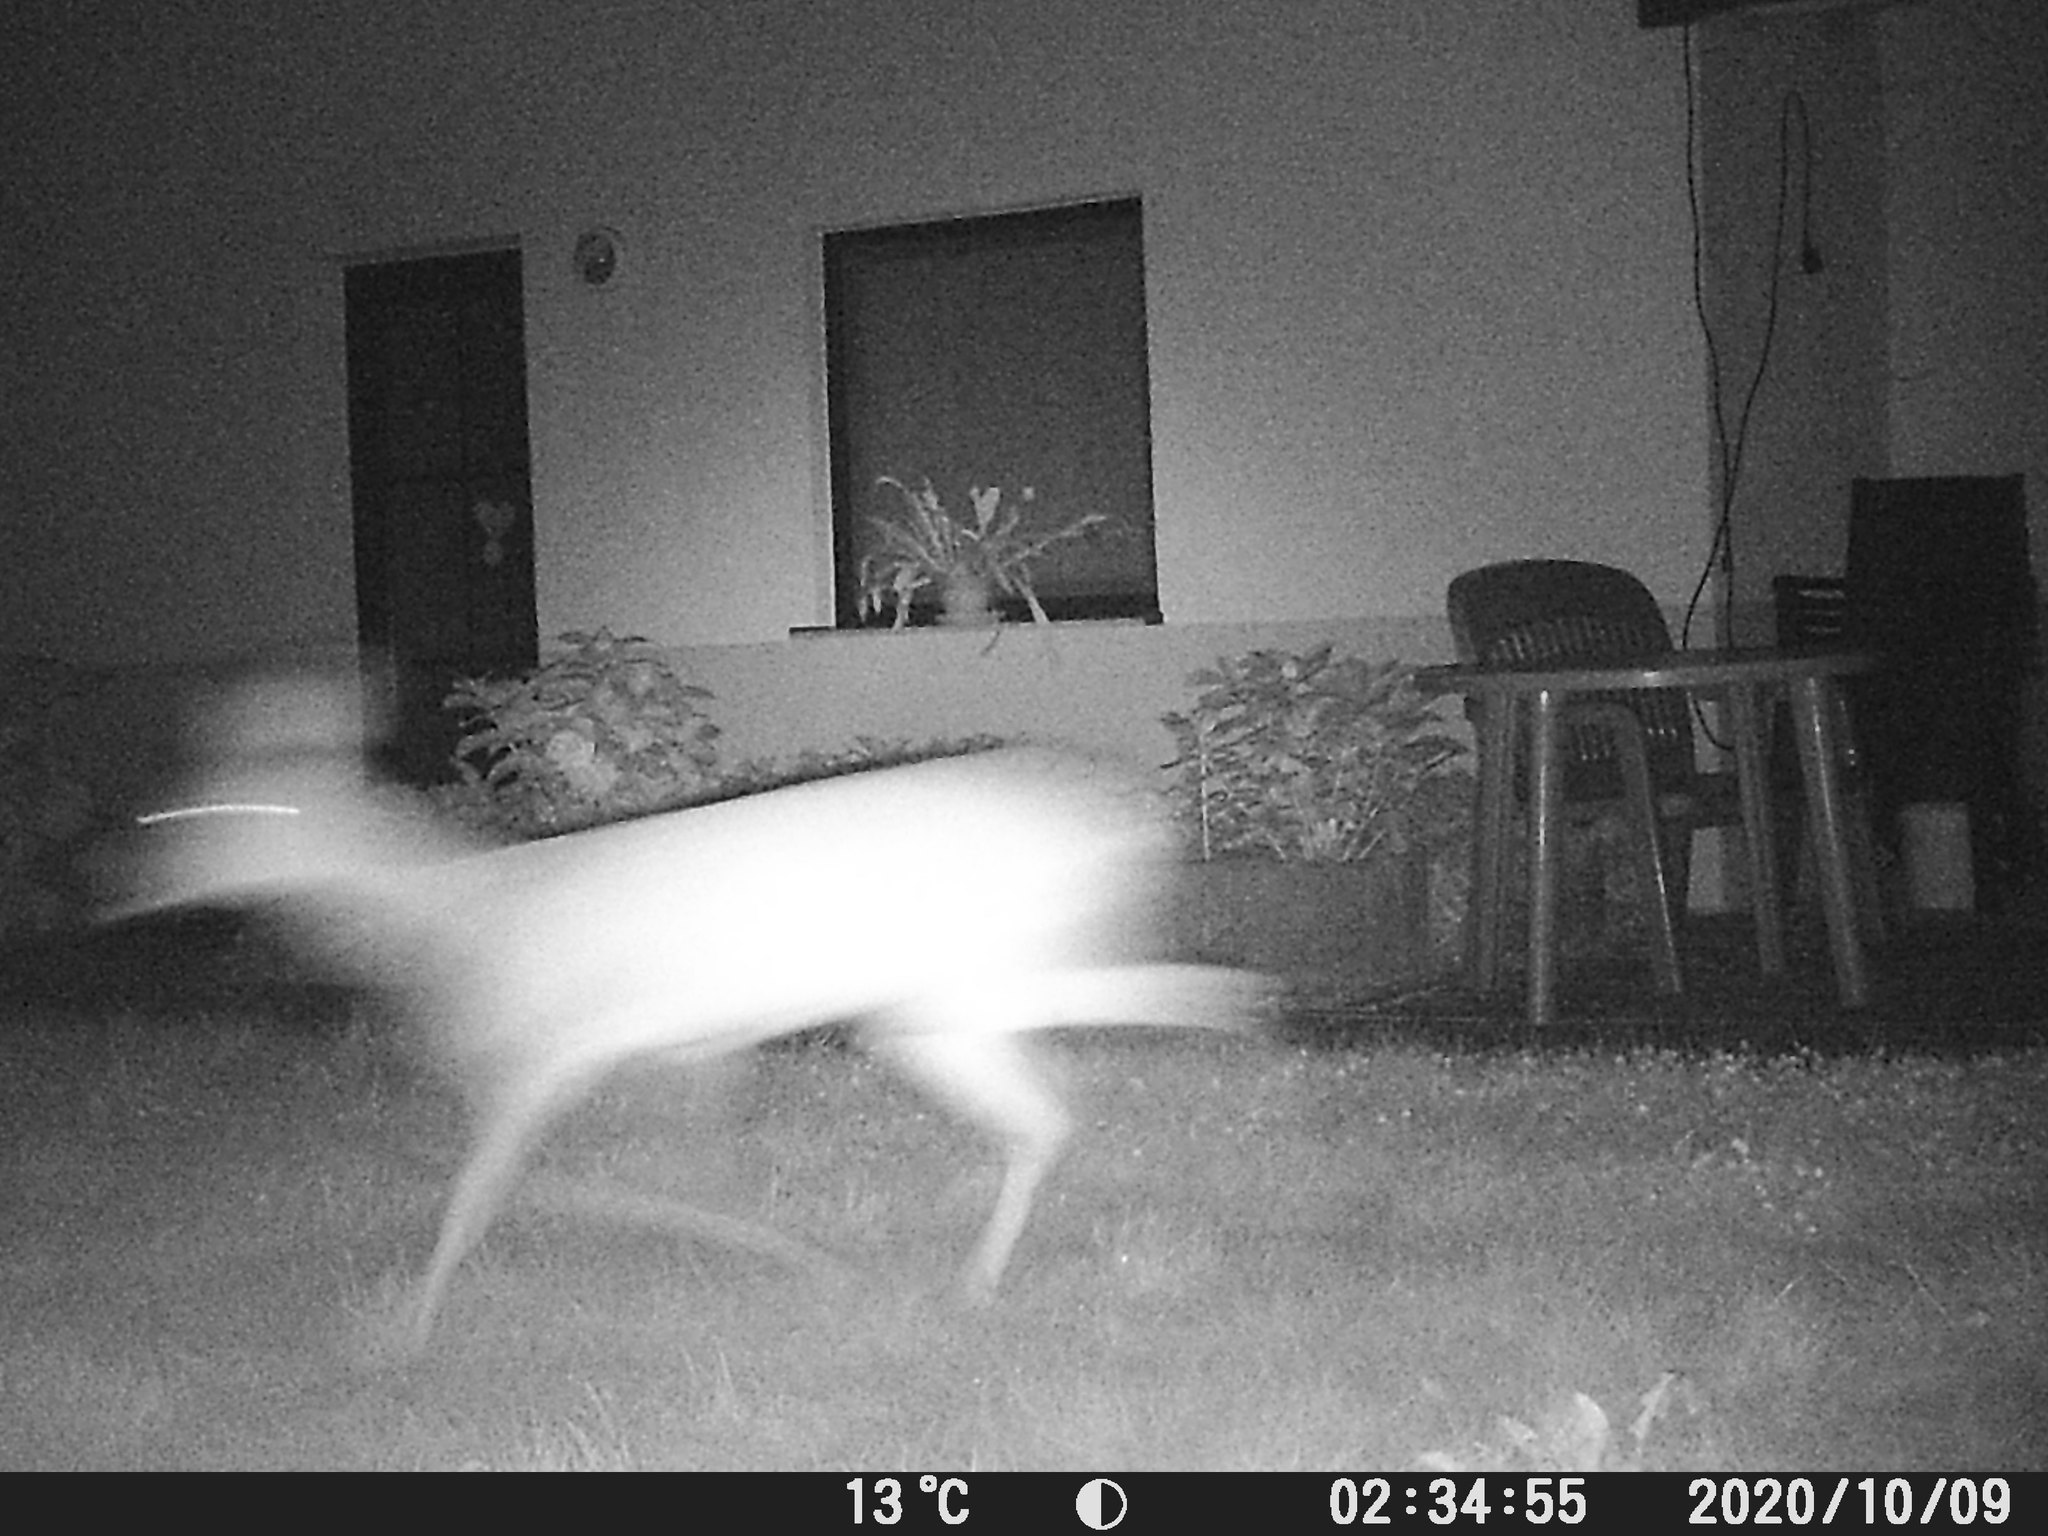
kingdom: Animalia
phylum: Chordata
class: Mammalia
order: Artiodactyla
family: Cervidae
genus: Capreolus
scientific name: Capreolus capreolus
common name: Western roe deer
